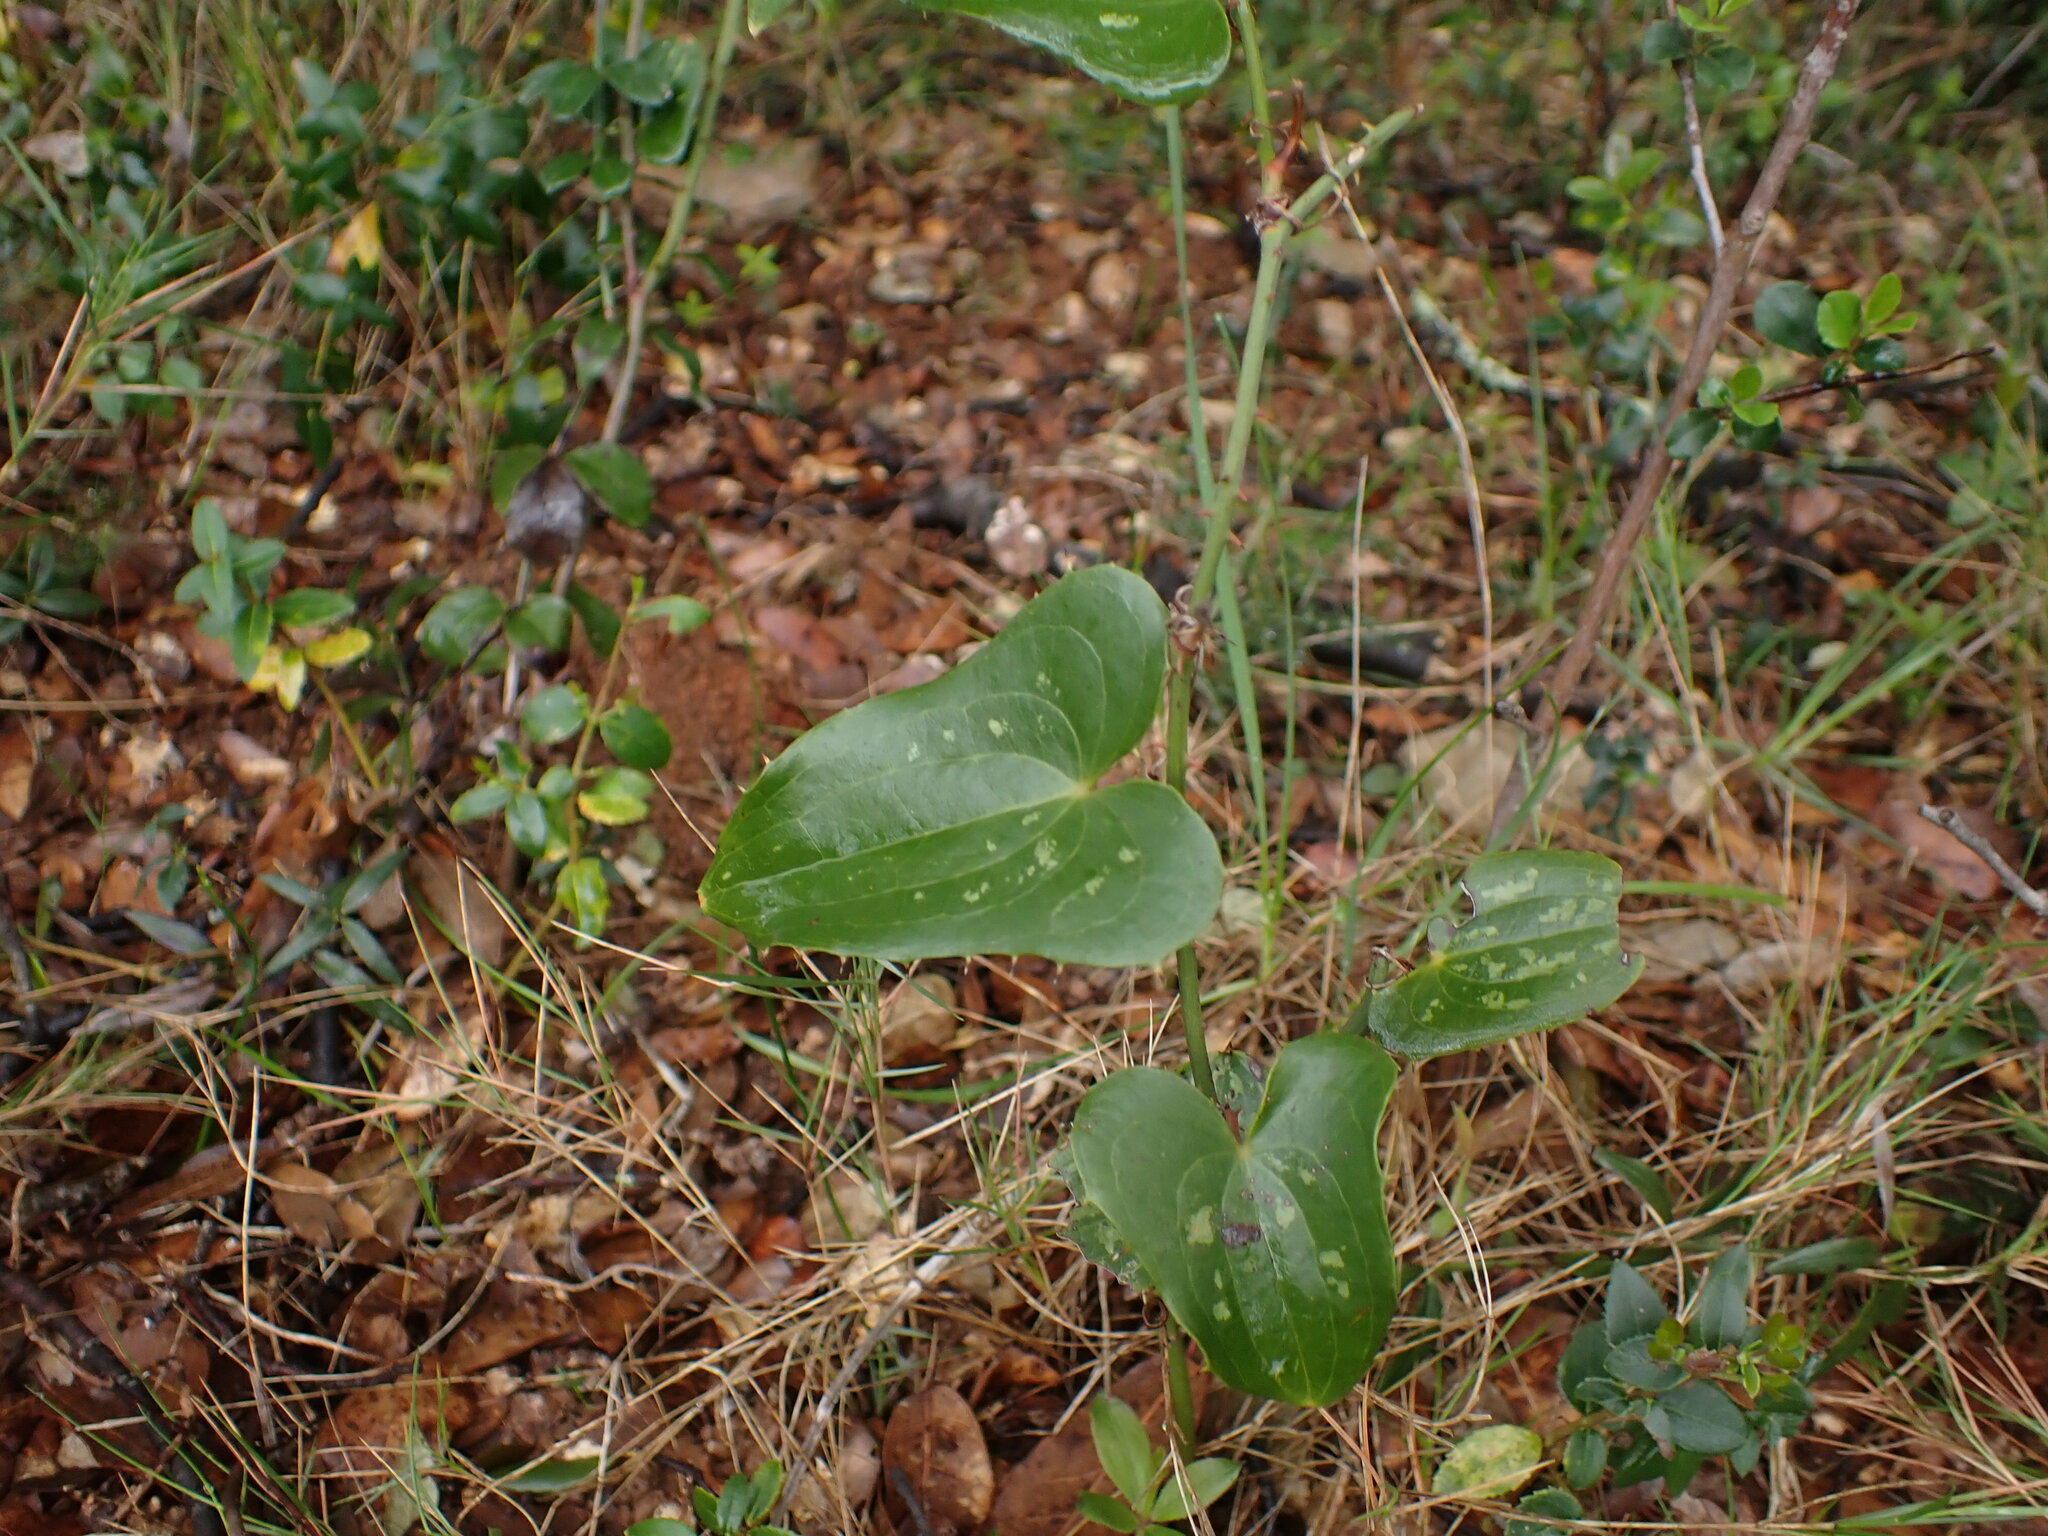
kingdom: Plantae
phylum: Tracheophyta
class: Liliopsida
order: Liliales
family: Smilacaceae
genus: Smilax
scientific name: Smilax aspera
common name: Common smilax
